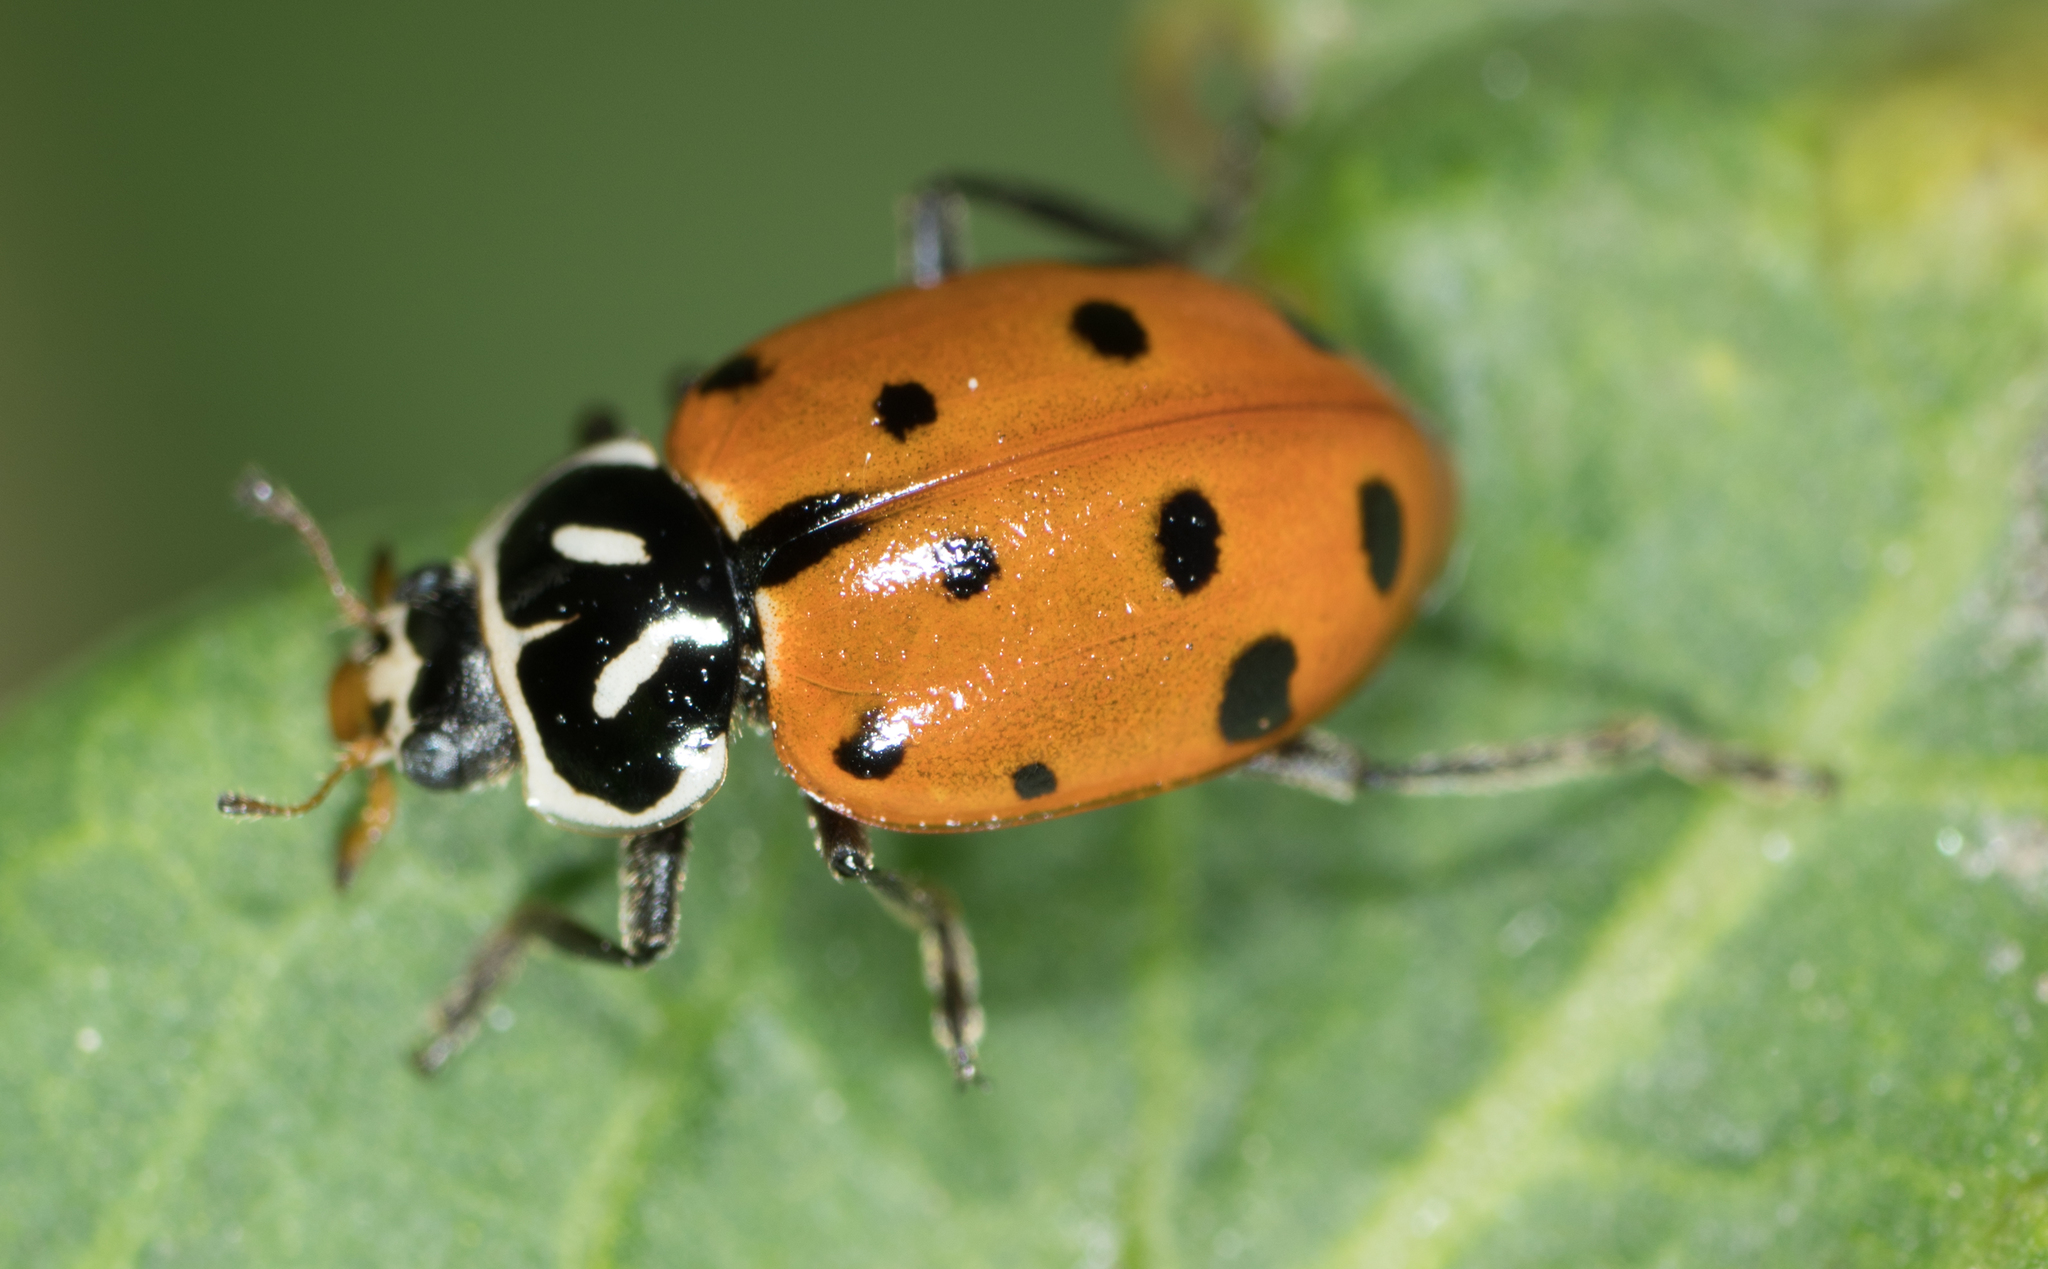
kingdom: Animalia
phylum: Arthropoda
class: Insecta
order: Coleoptera
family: Coccinellidae
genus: Hippodamia
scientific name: Hippodamia convergens
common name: Convergent lady beetle
